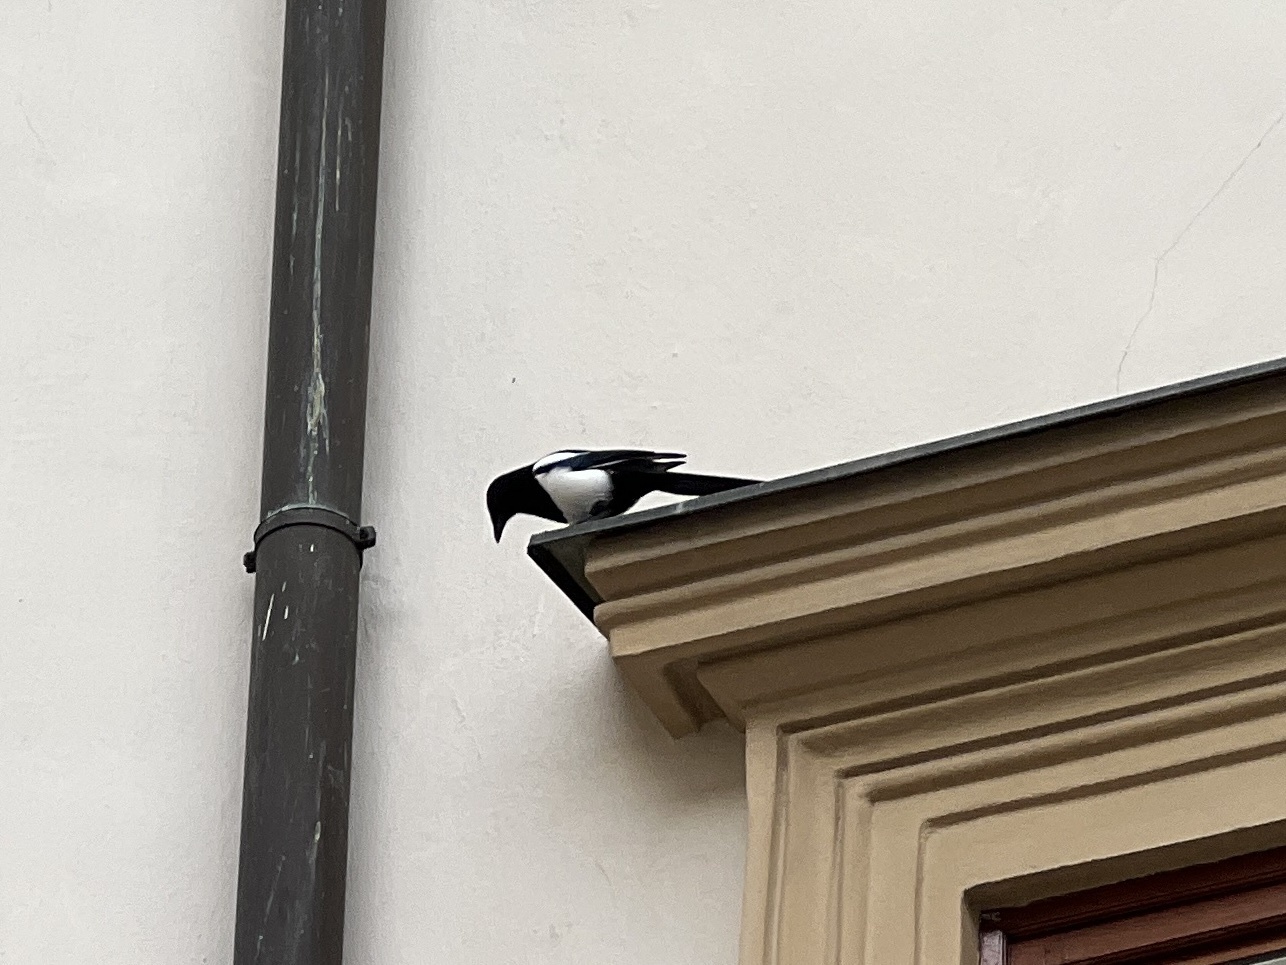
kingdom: Animalia
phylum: Chordata
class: Aves
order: Passeriformes
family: Corvidae
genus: Pica
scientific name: Pica pica
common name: Eurasian magpie
